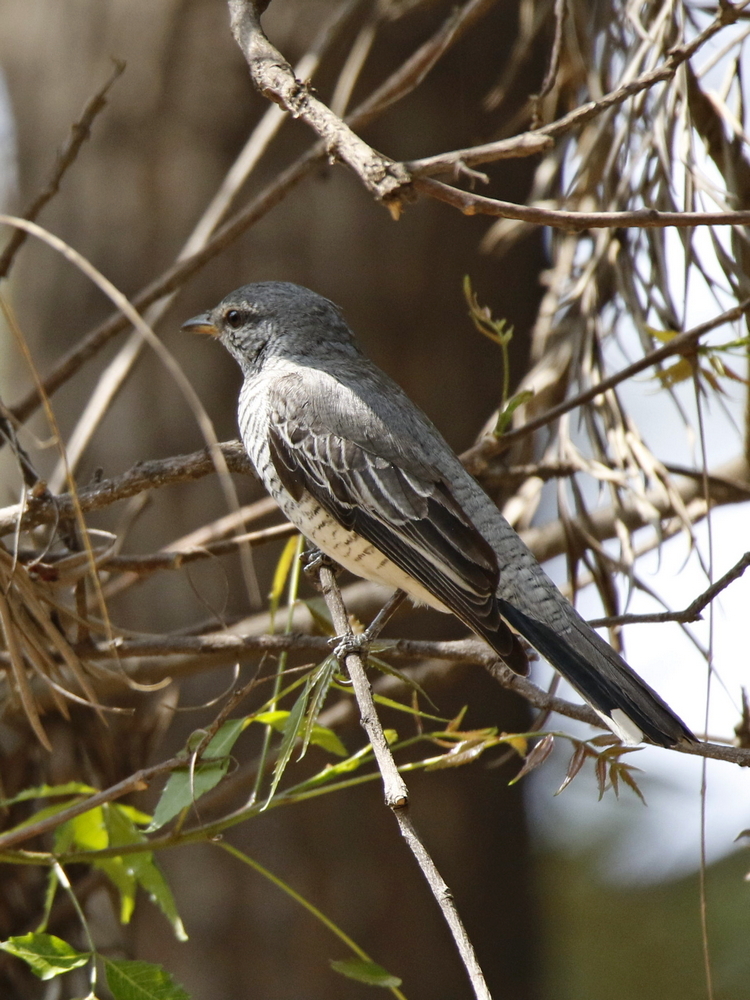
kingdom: Animalia
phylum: Chordata
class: Aves
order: Passeriformes
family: Campephagidae
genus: Coracina
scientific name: Coracina melanoptera
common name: Black-headed cuckooshrike
